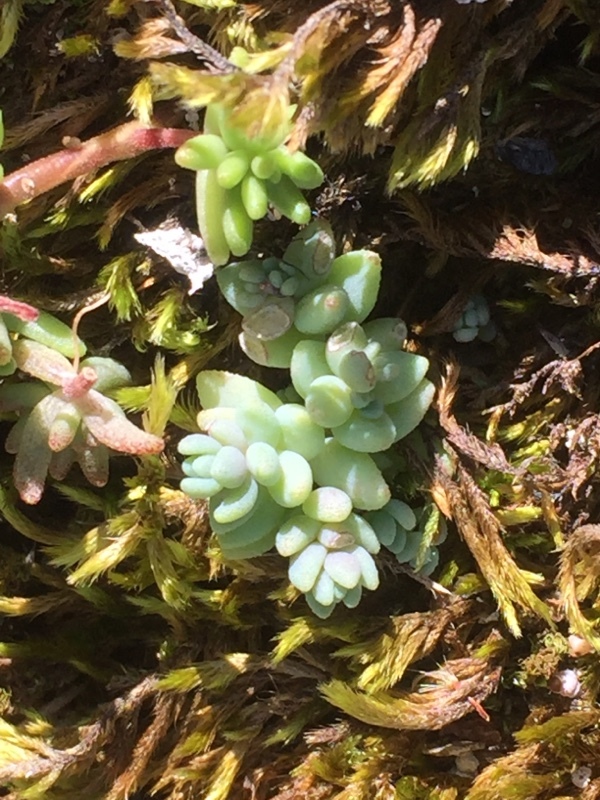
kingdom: Plantae
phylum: Tracheophyta
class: Magnoliopsida
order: Saxifragales
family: Crassulaceae
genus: Sedum
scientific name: Sedum dasyphyllum
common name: Thick-leaf stonecrop
